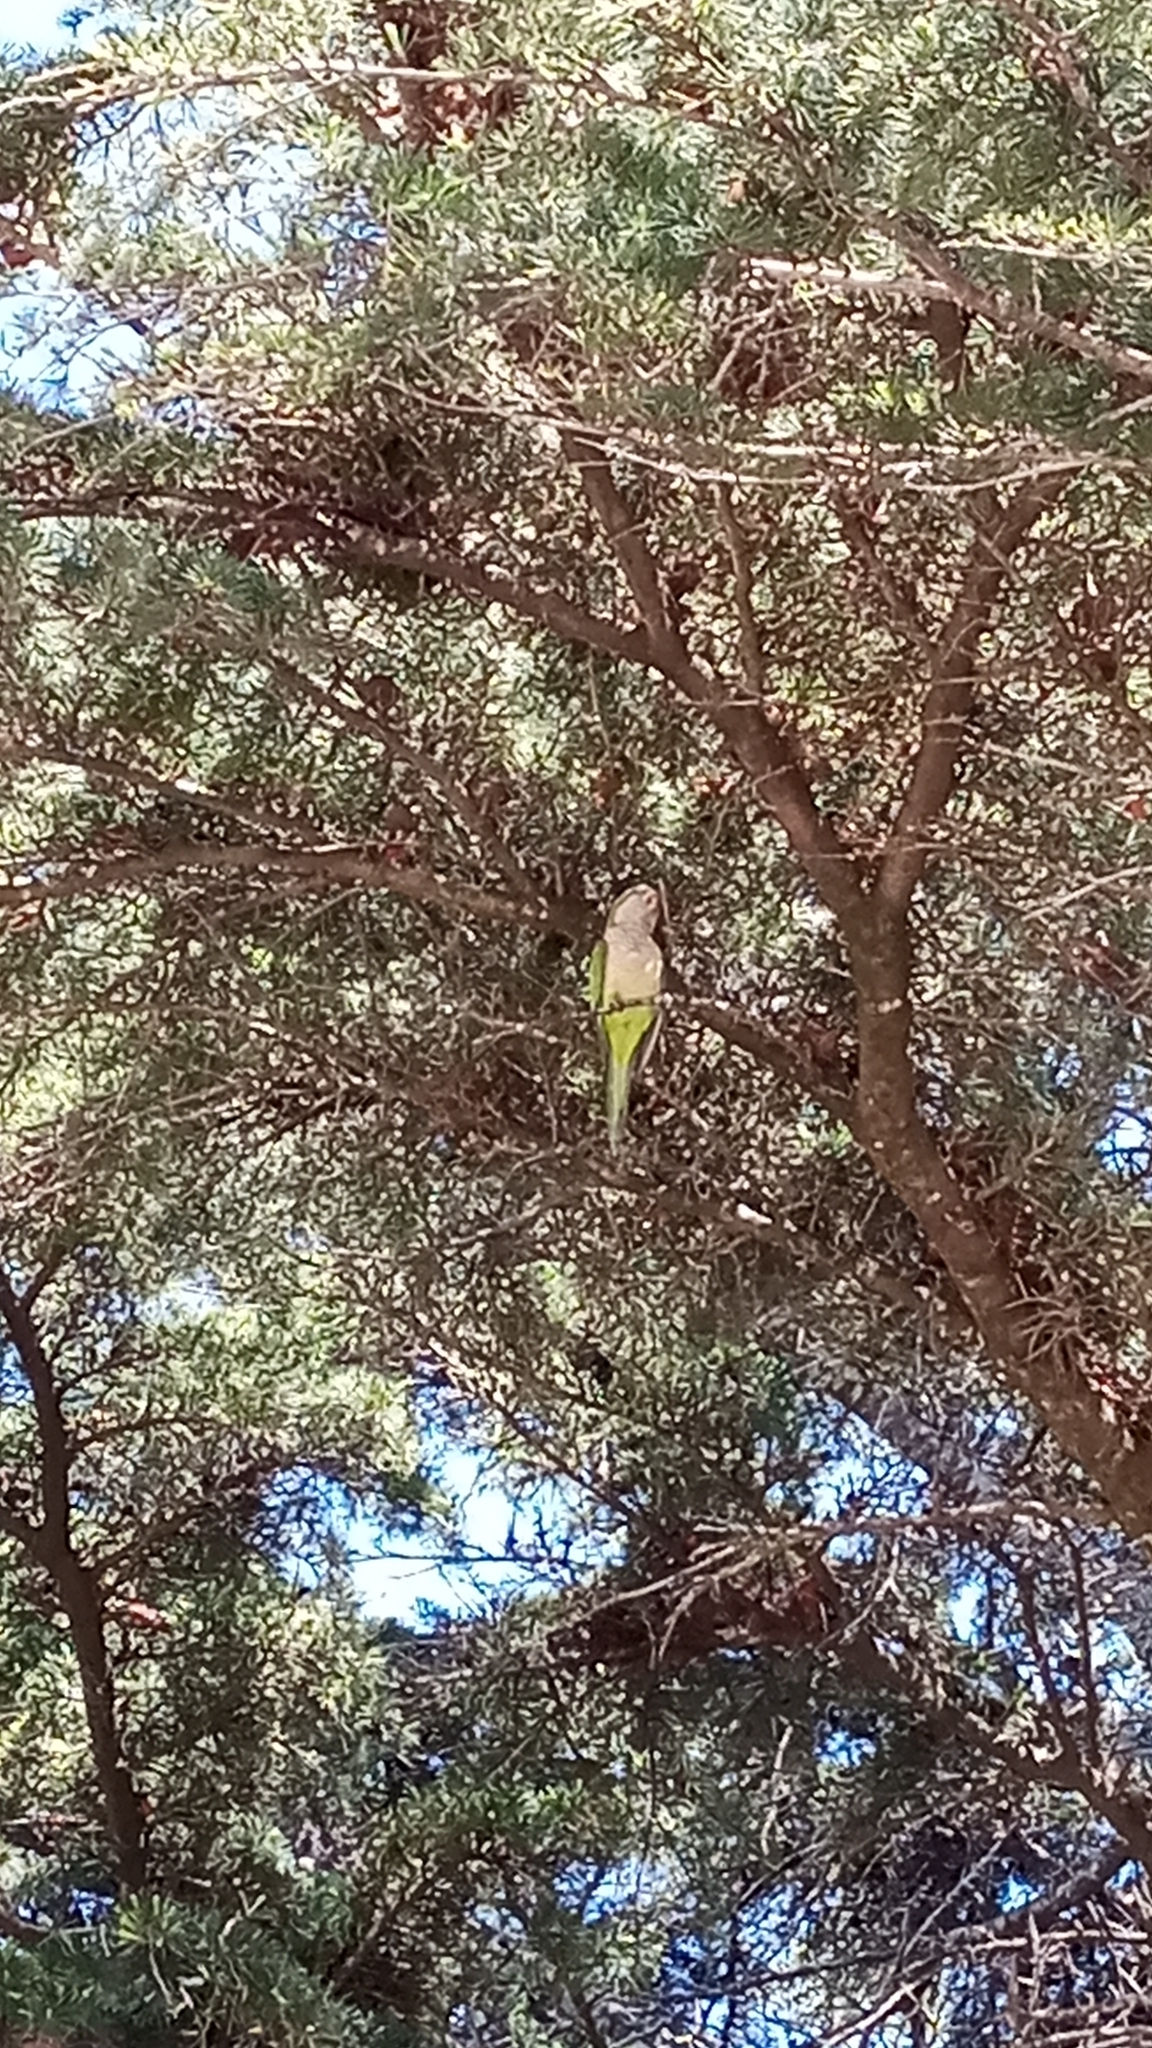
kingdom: Animalia
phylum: Chordata
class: Aves
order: Psittaciformes
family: Psittacidae
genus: Myiopsitta
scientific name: Myiopsitta monachus
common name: Monk parakeet
